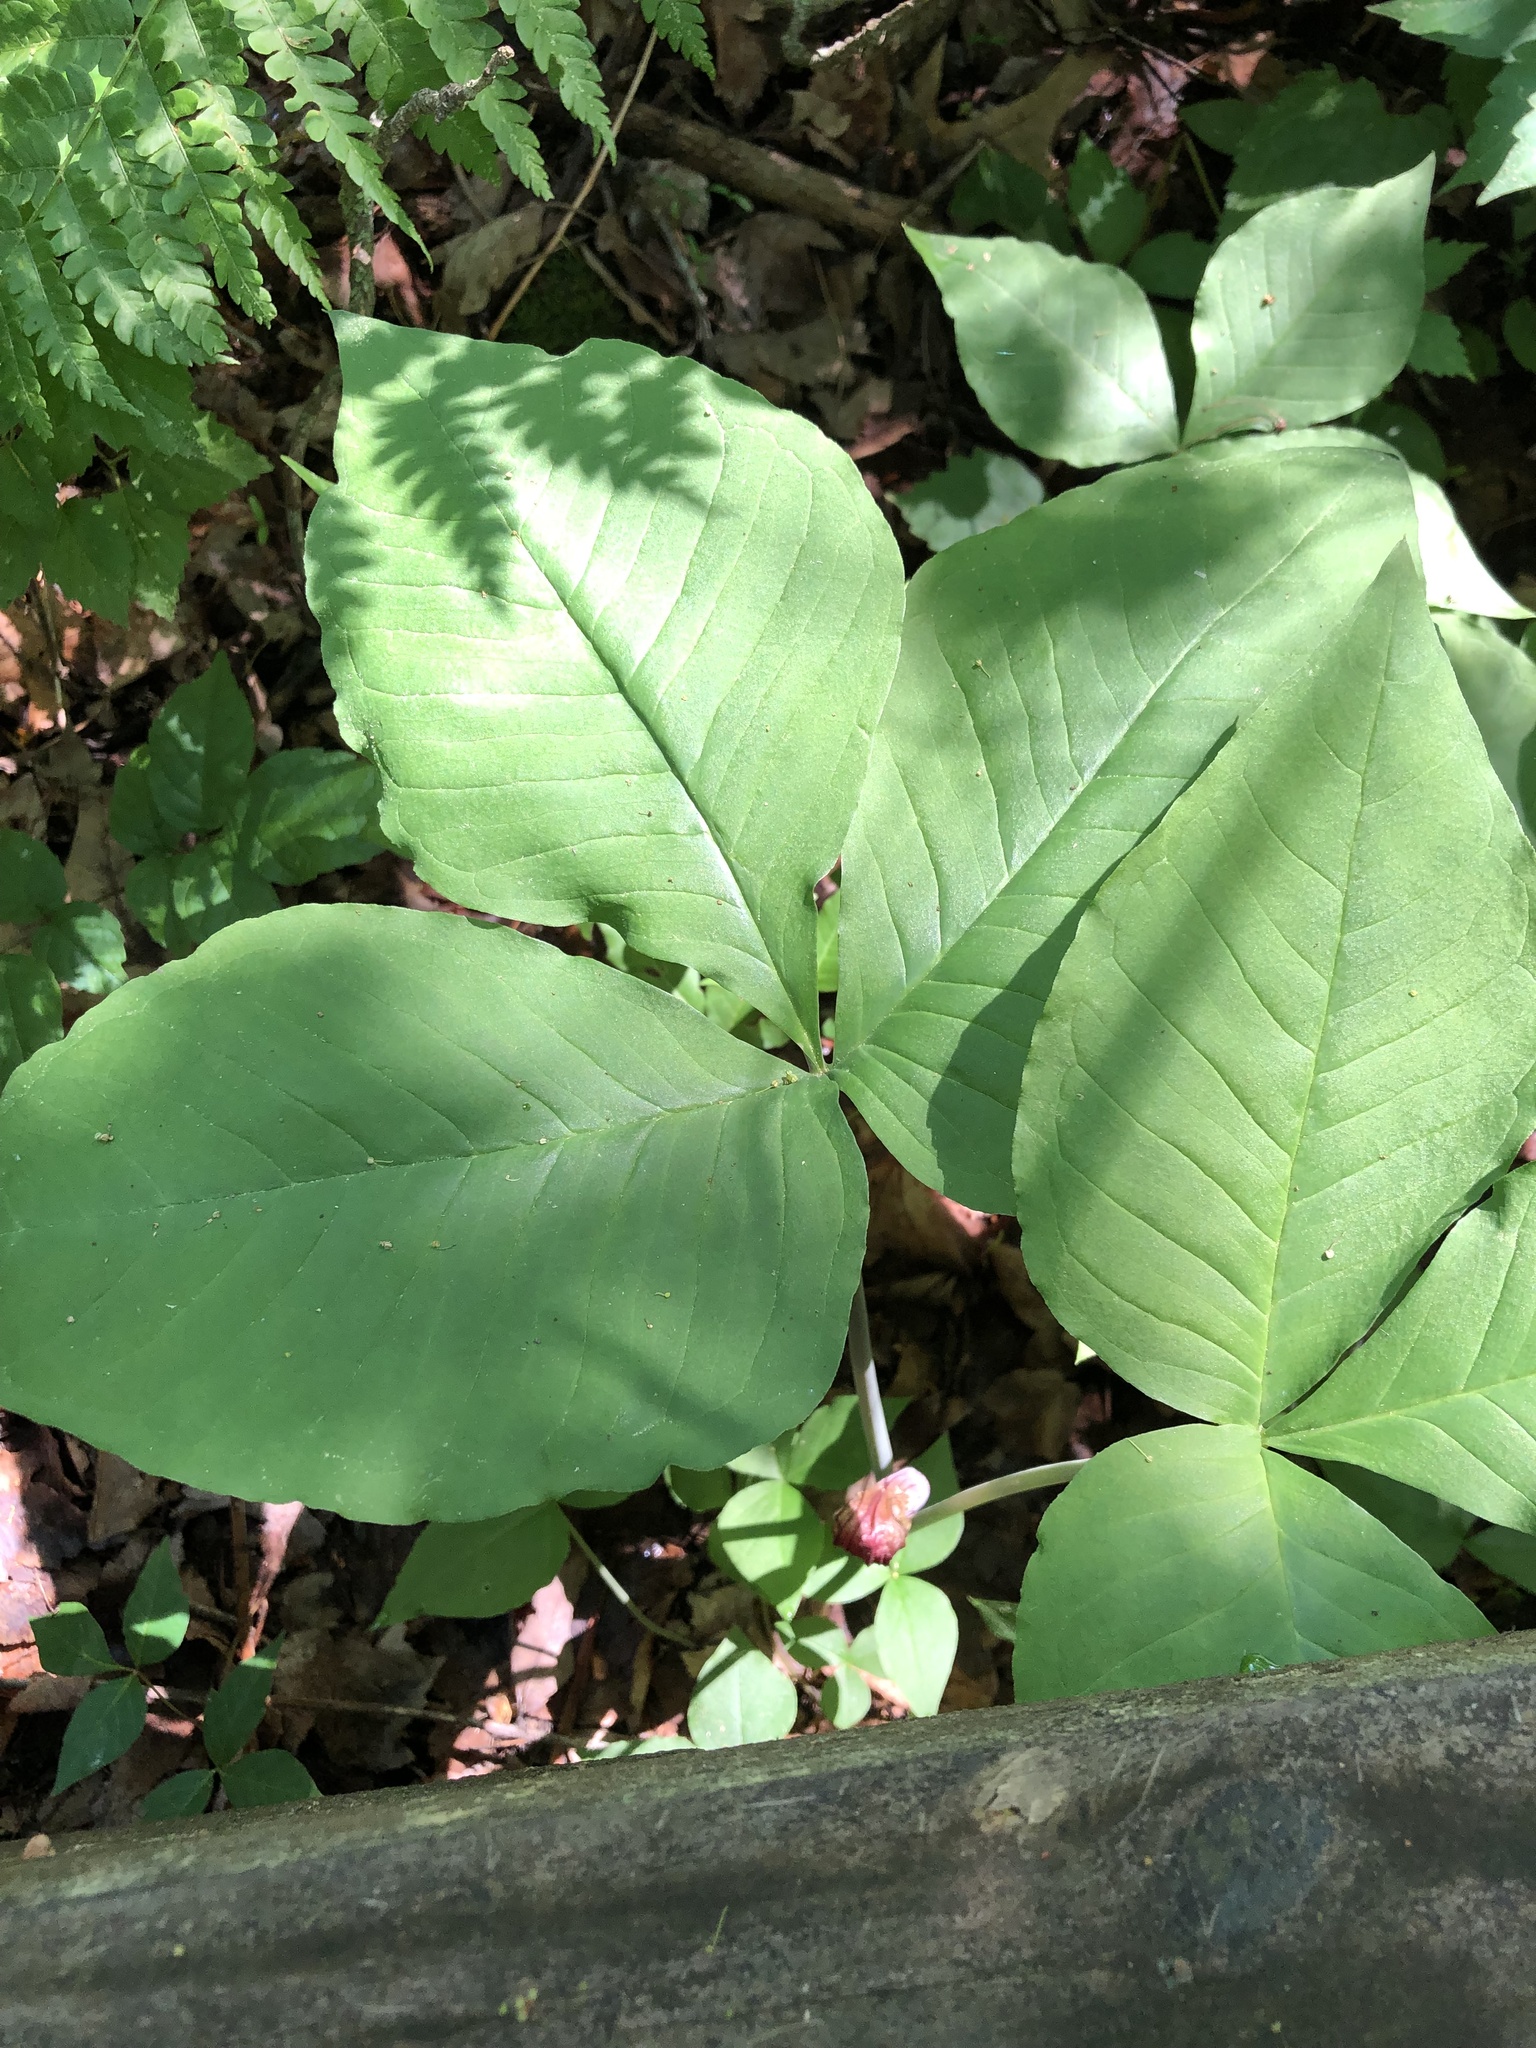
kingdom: Plantae
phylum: Tracheophyta
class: Liliopsida
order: Alismatales
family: Araceae
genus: Arisaema
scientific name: Arisaema triphyllum
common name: Jack-in-the-pulpit
